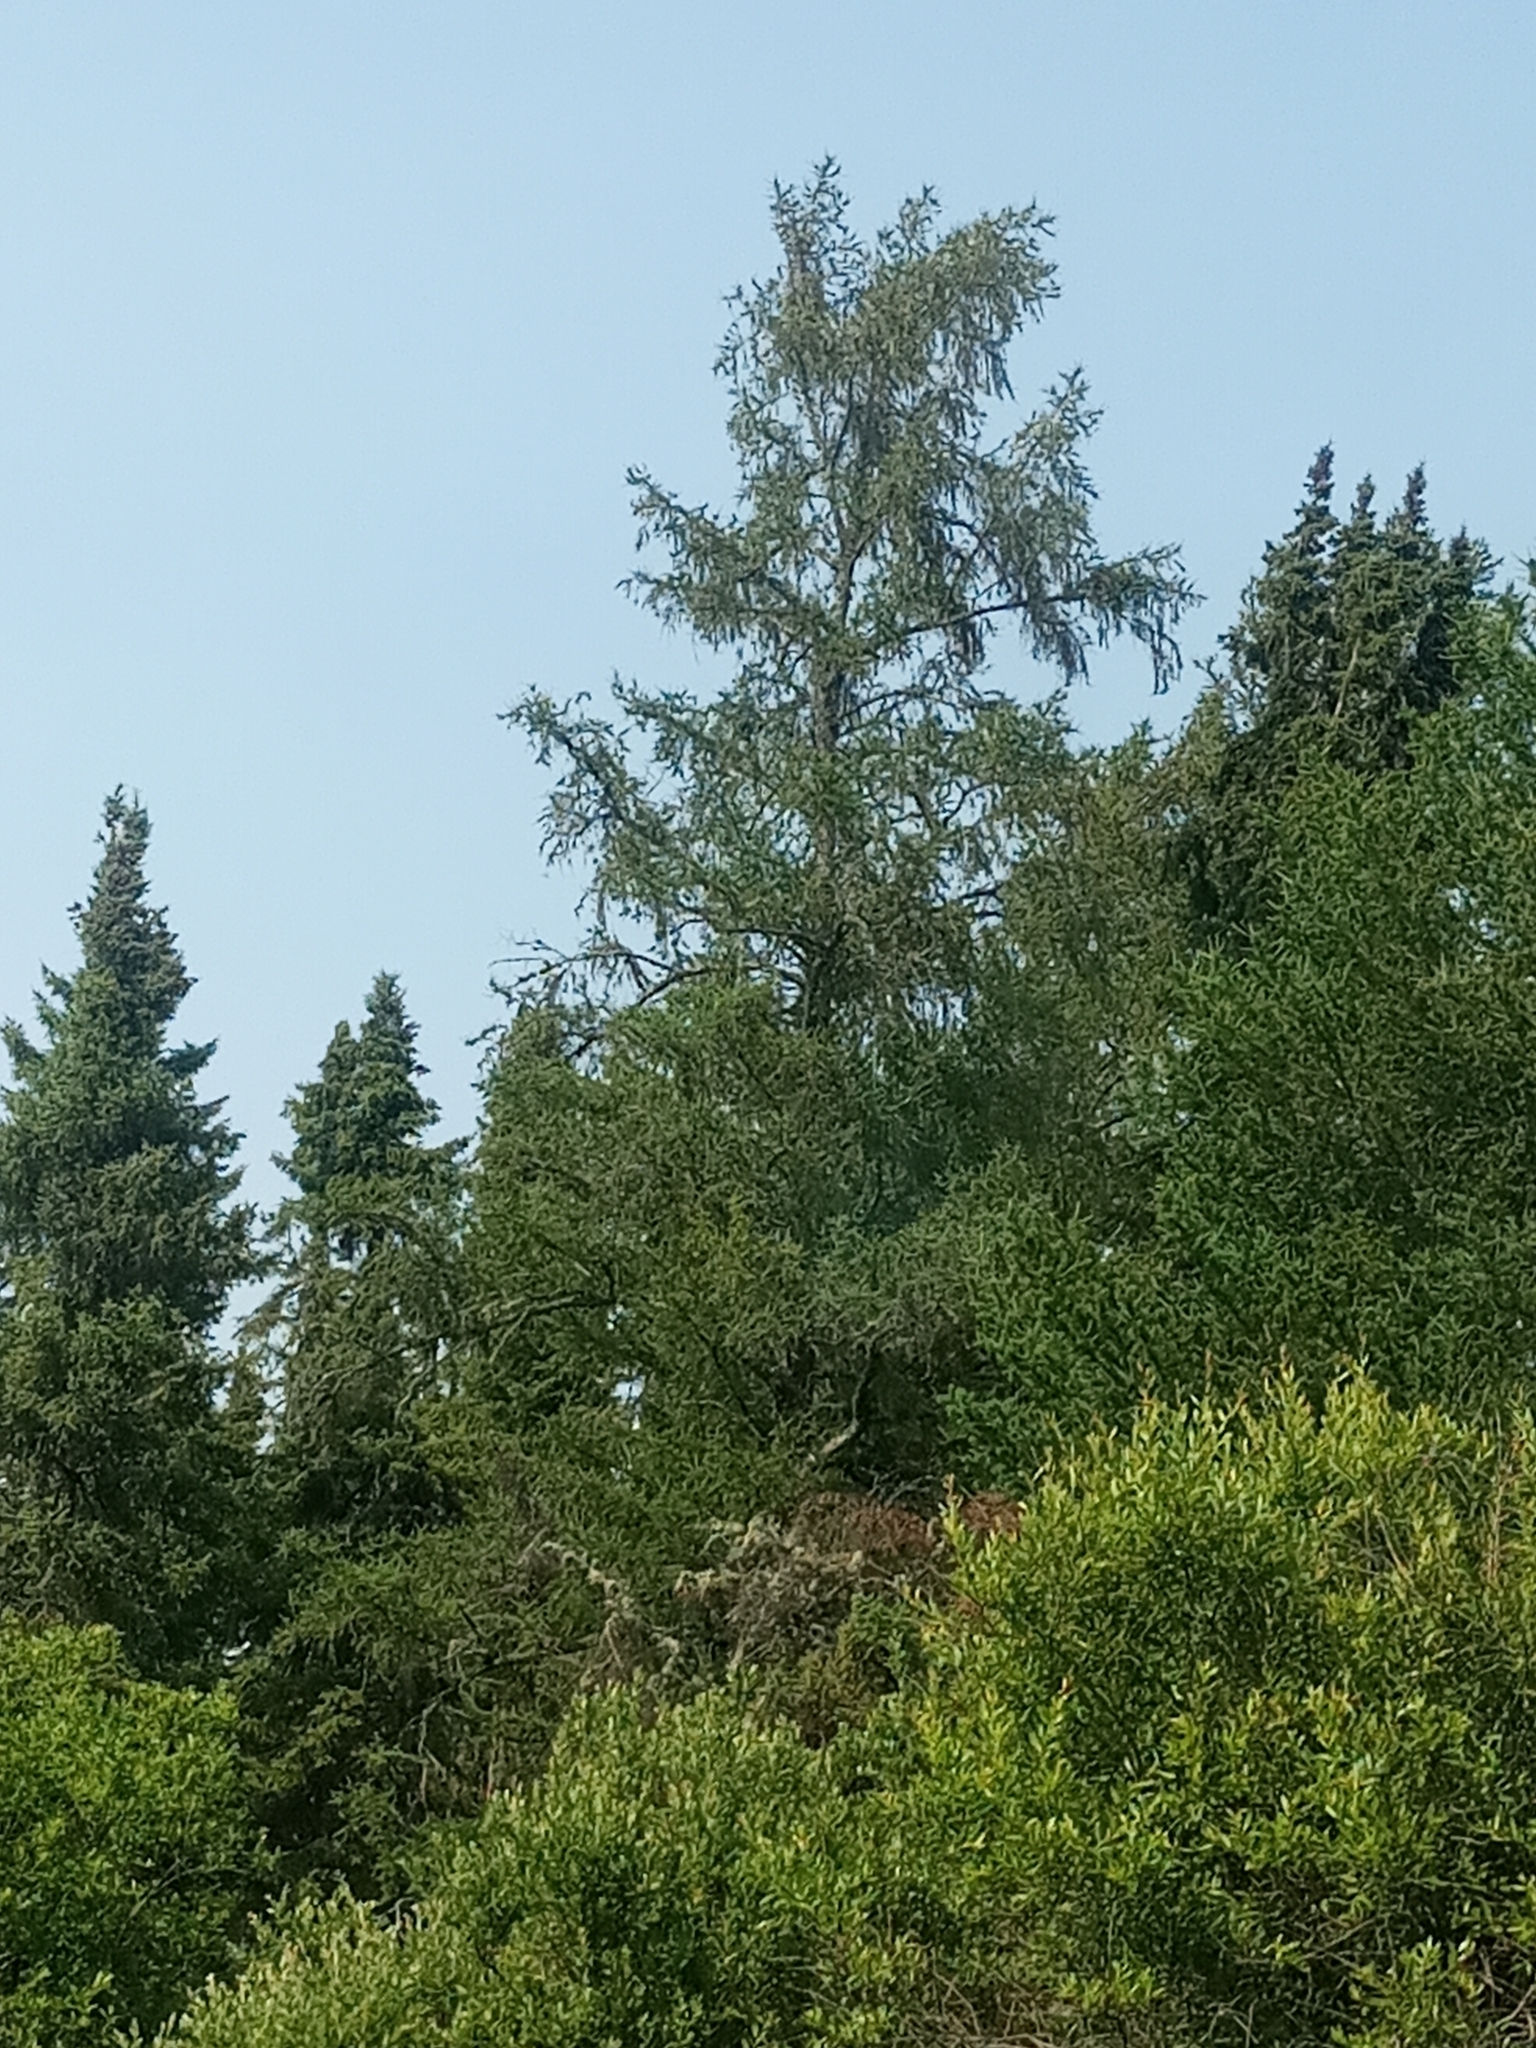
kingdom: Plantae
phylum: Tracheophyta
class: Pinopsida
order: Pinales
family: Pinaceae
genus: Larix
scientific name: Larix laricina
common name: American larch
